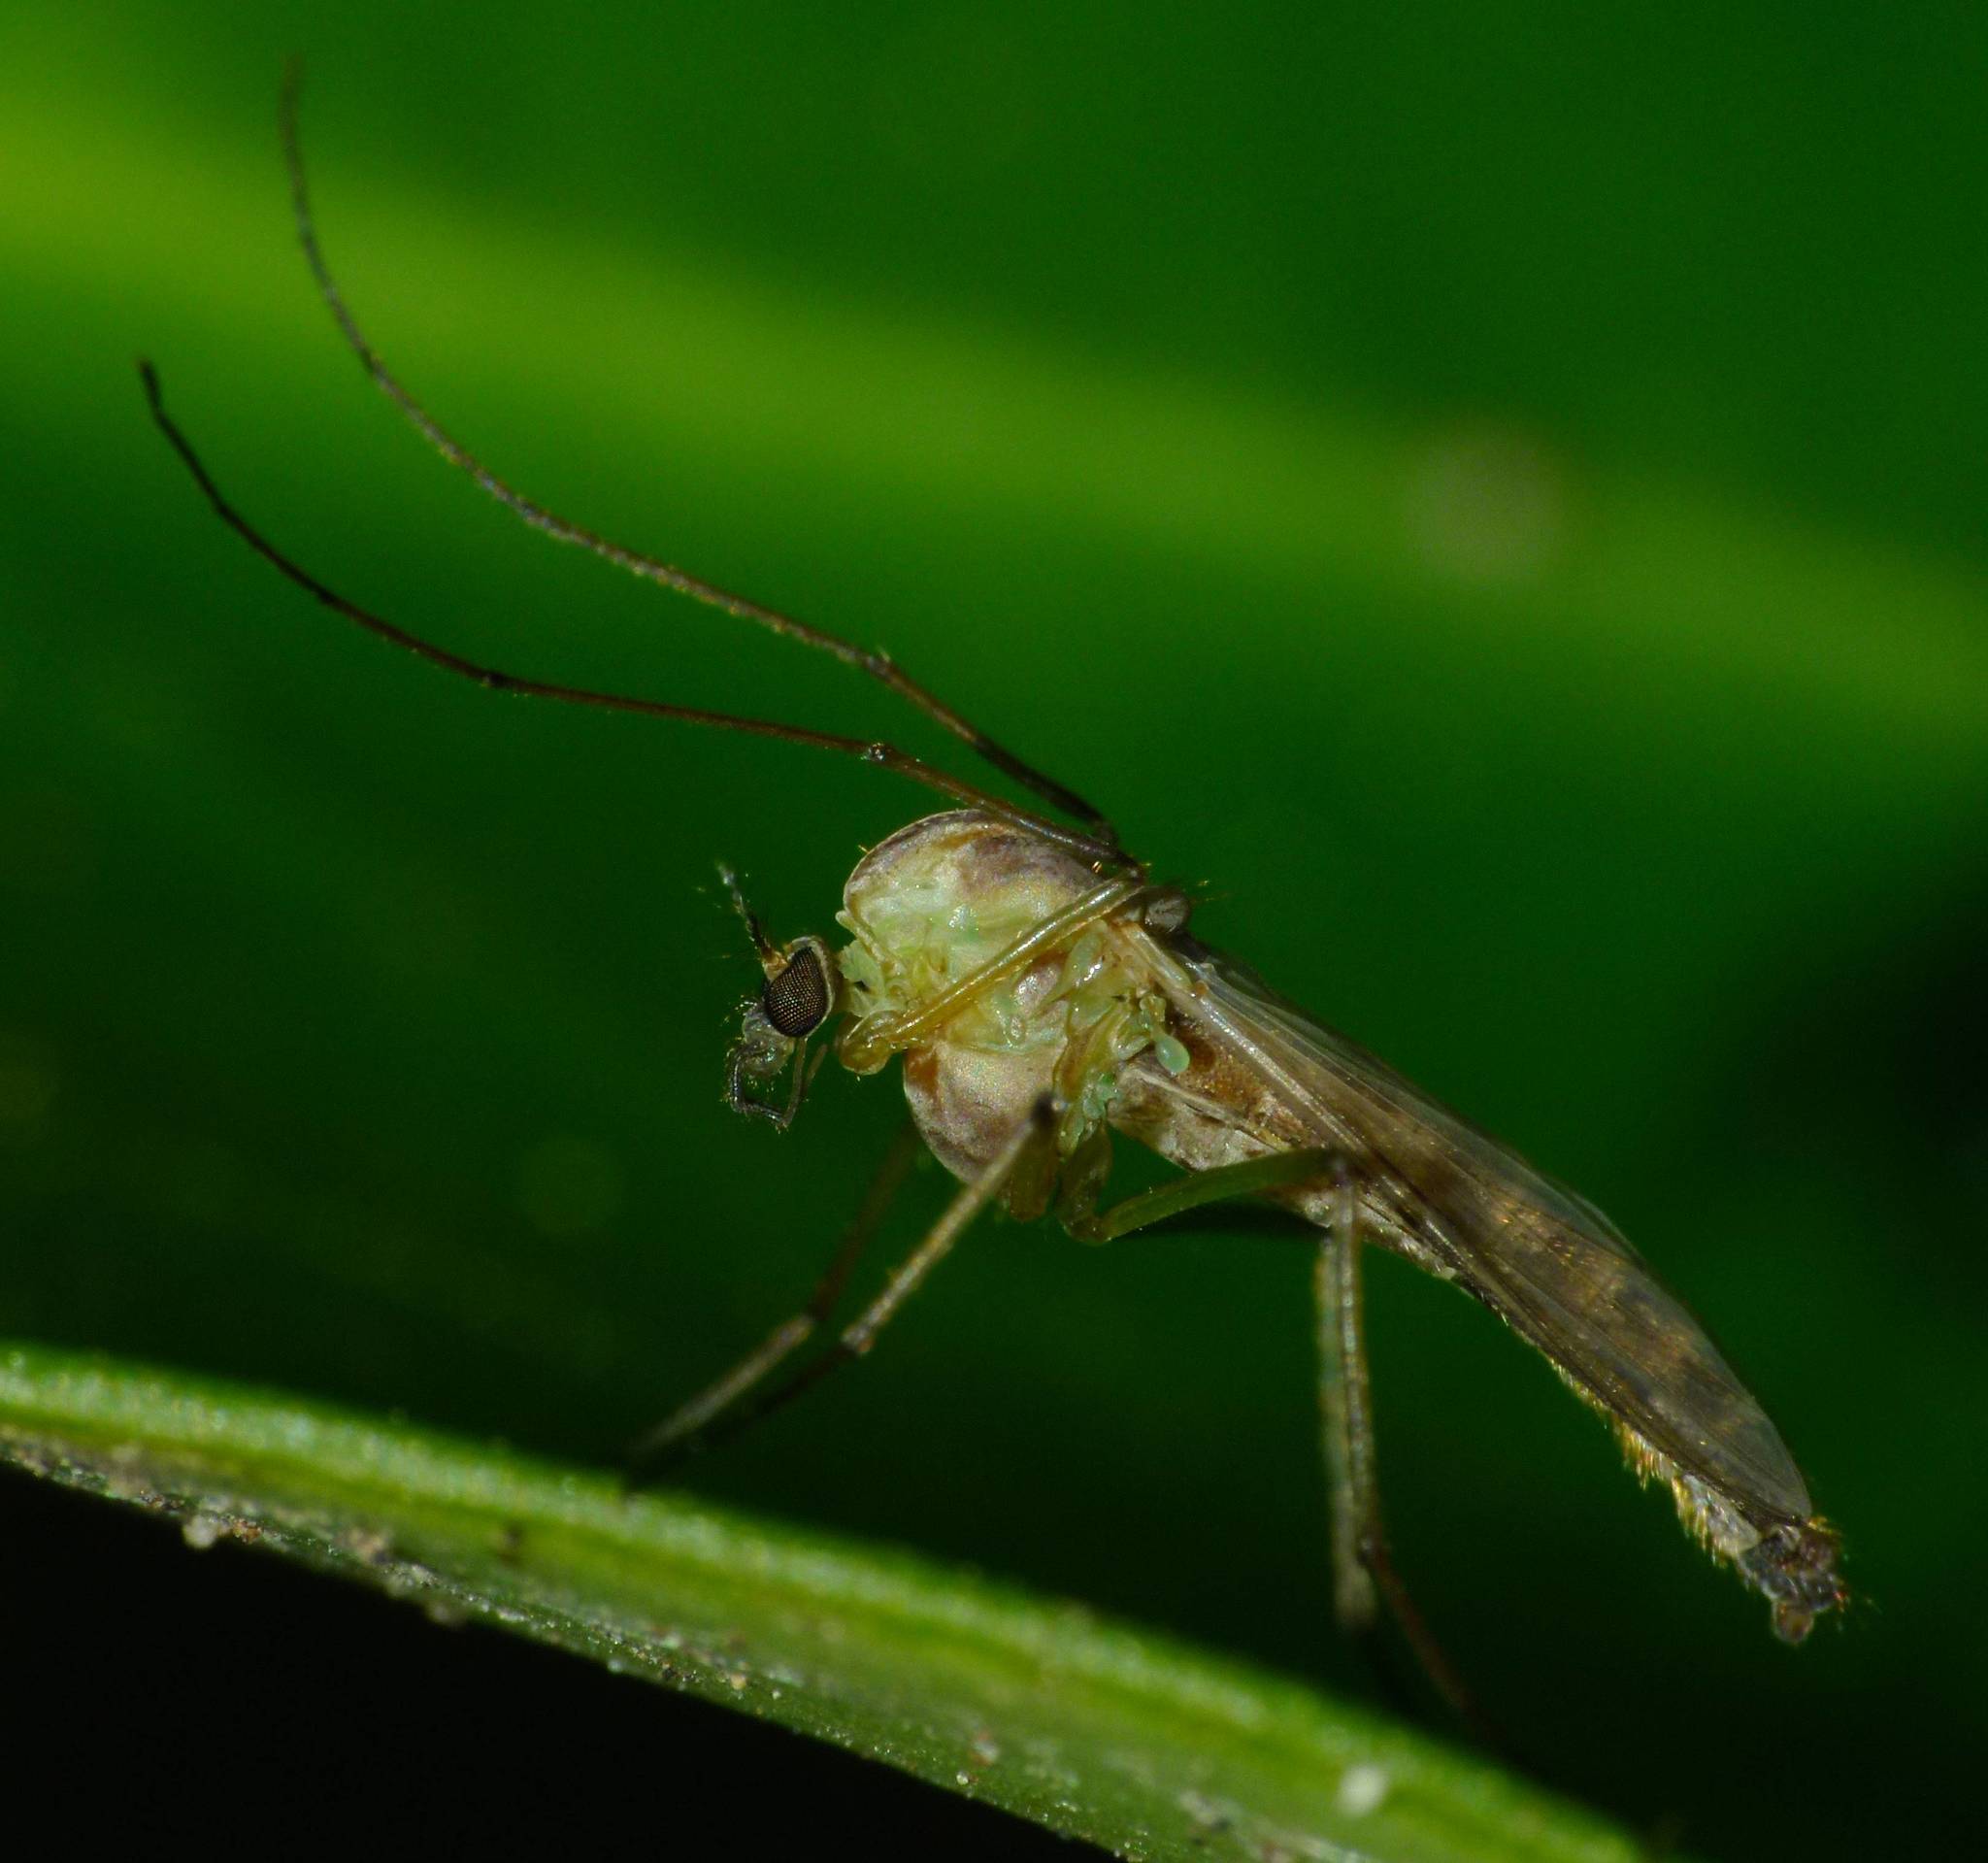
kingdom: Animalia
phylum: Arthropoda
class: Insecta
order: Diptera
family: Chironomidae
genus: Chironomus
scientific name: Chironomus zealandicus
